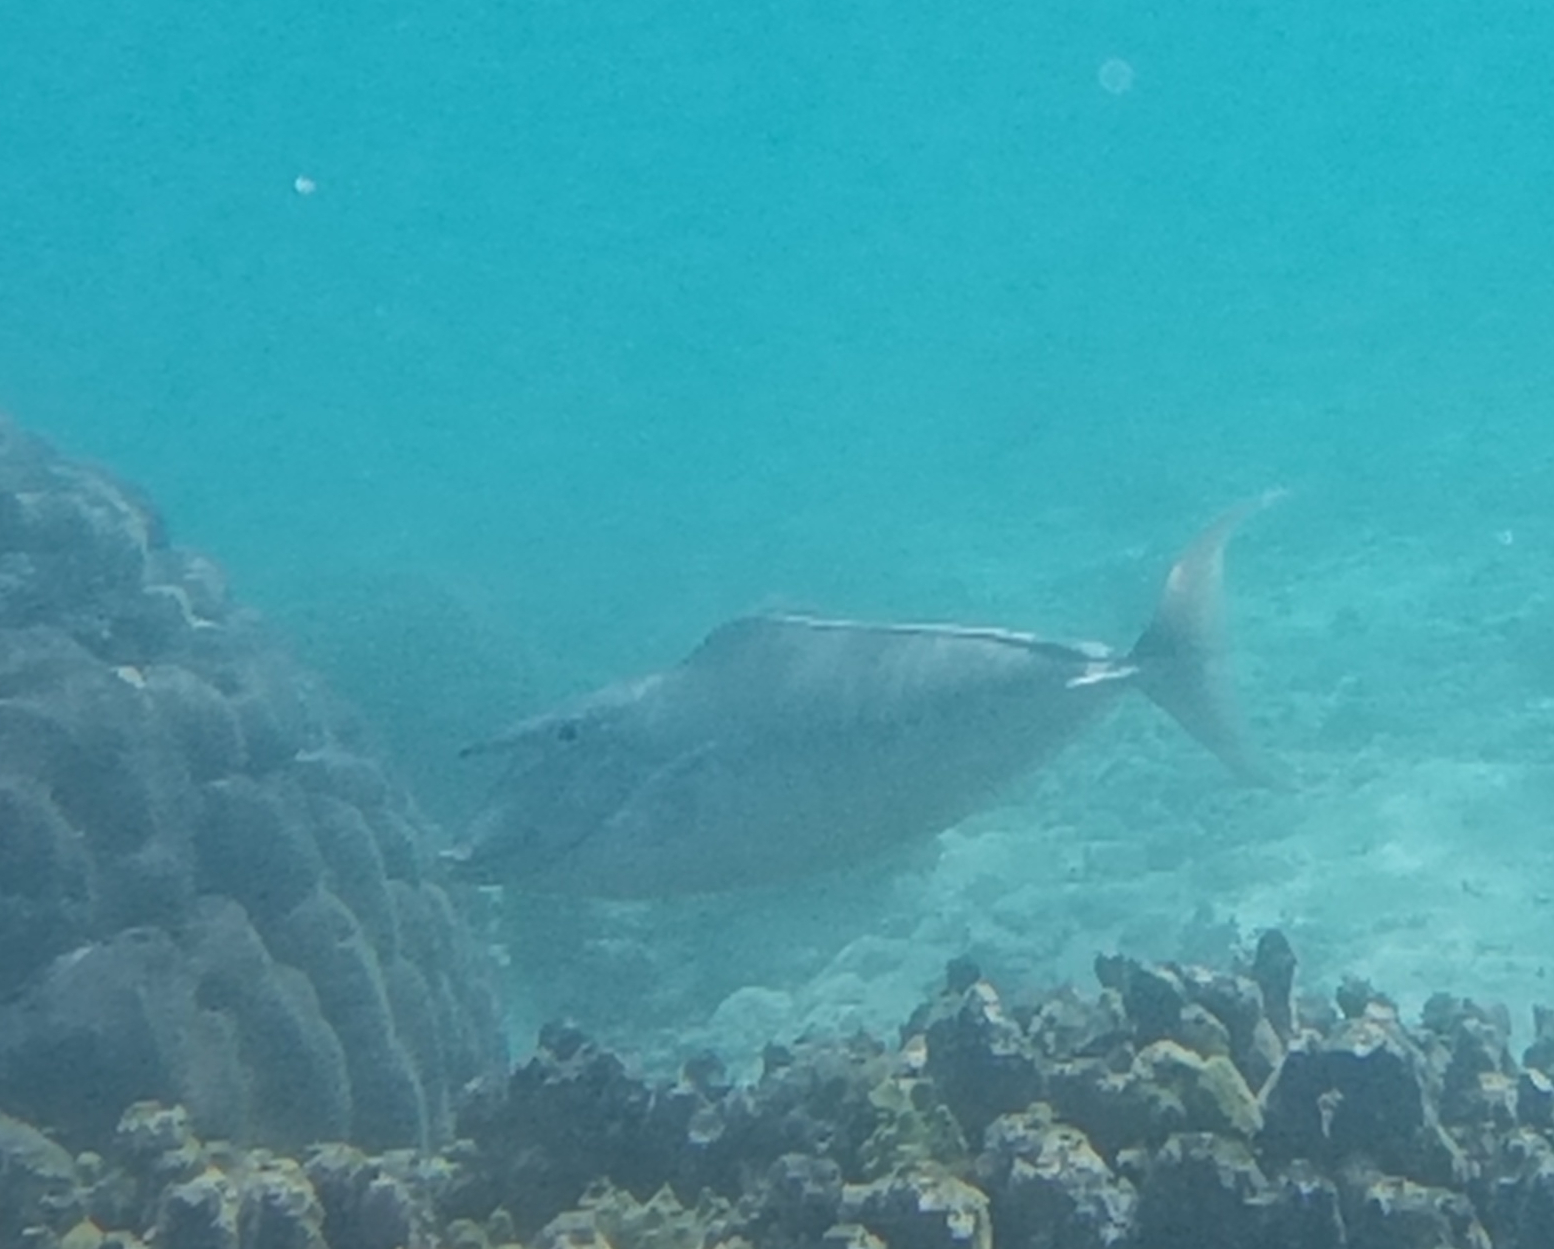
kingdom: Animalia
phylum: Chordata
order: Perciformes
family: Acanthuridae
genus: Naso
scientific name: Naso brachycentron
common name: Humpback unicornfish
